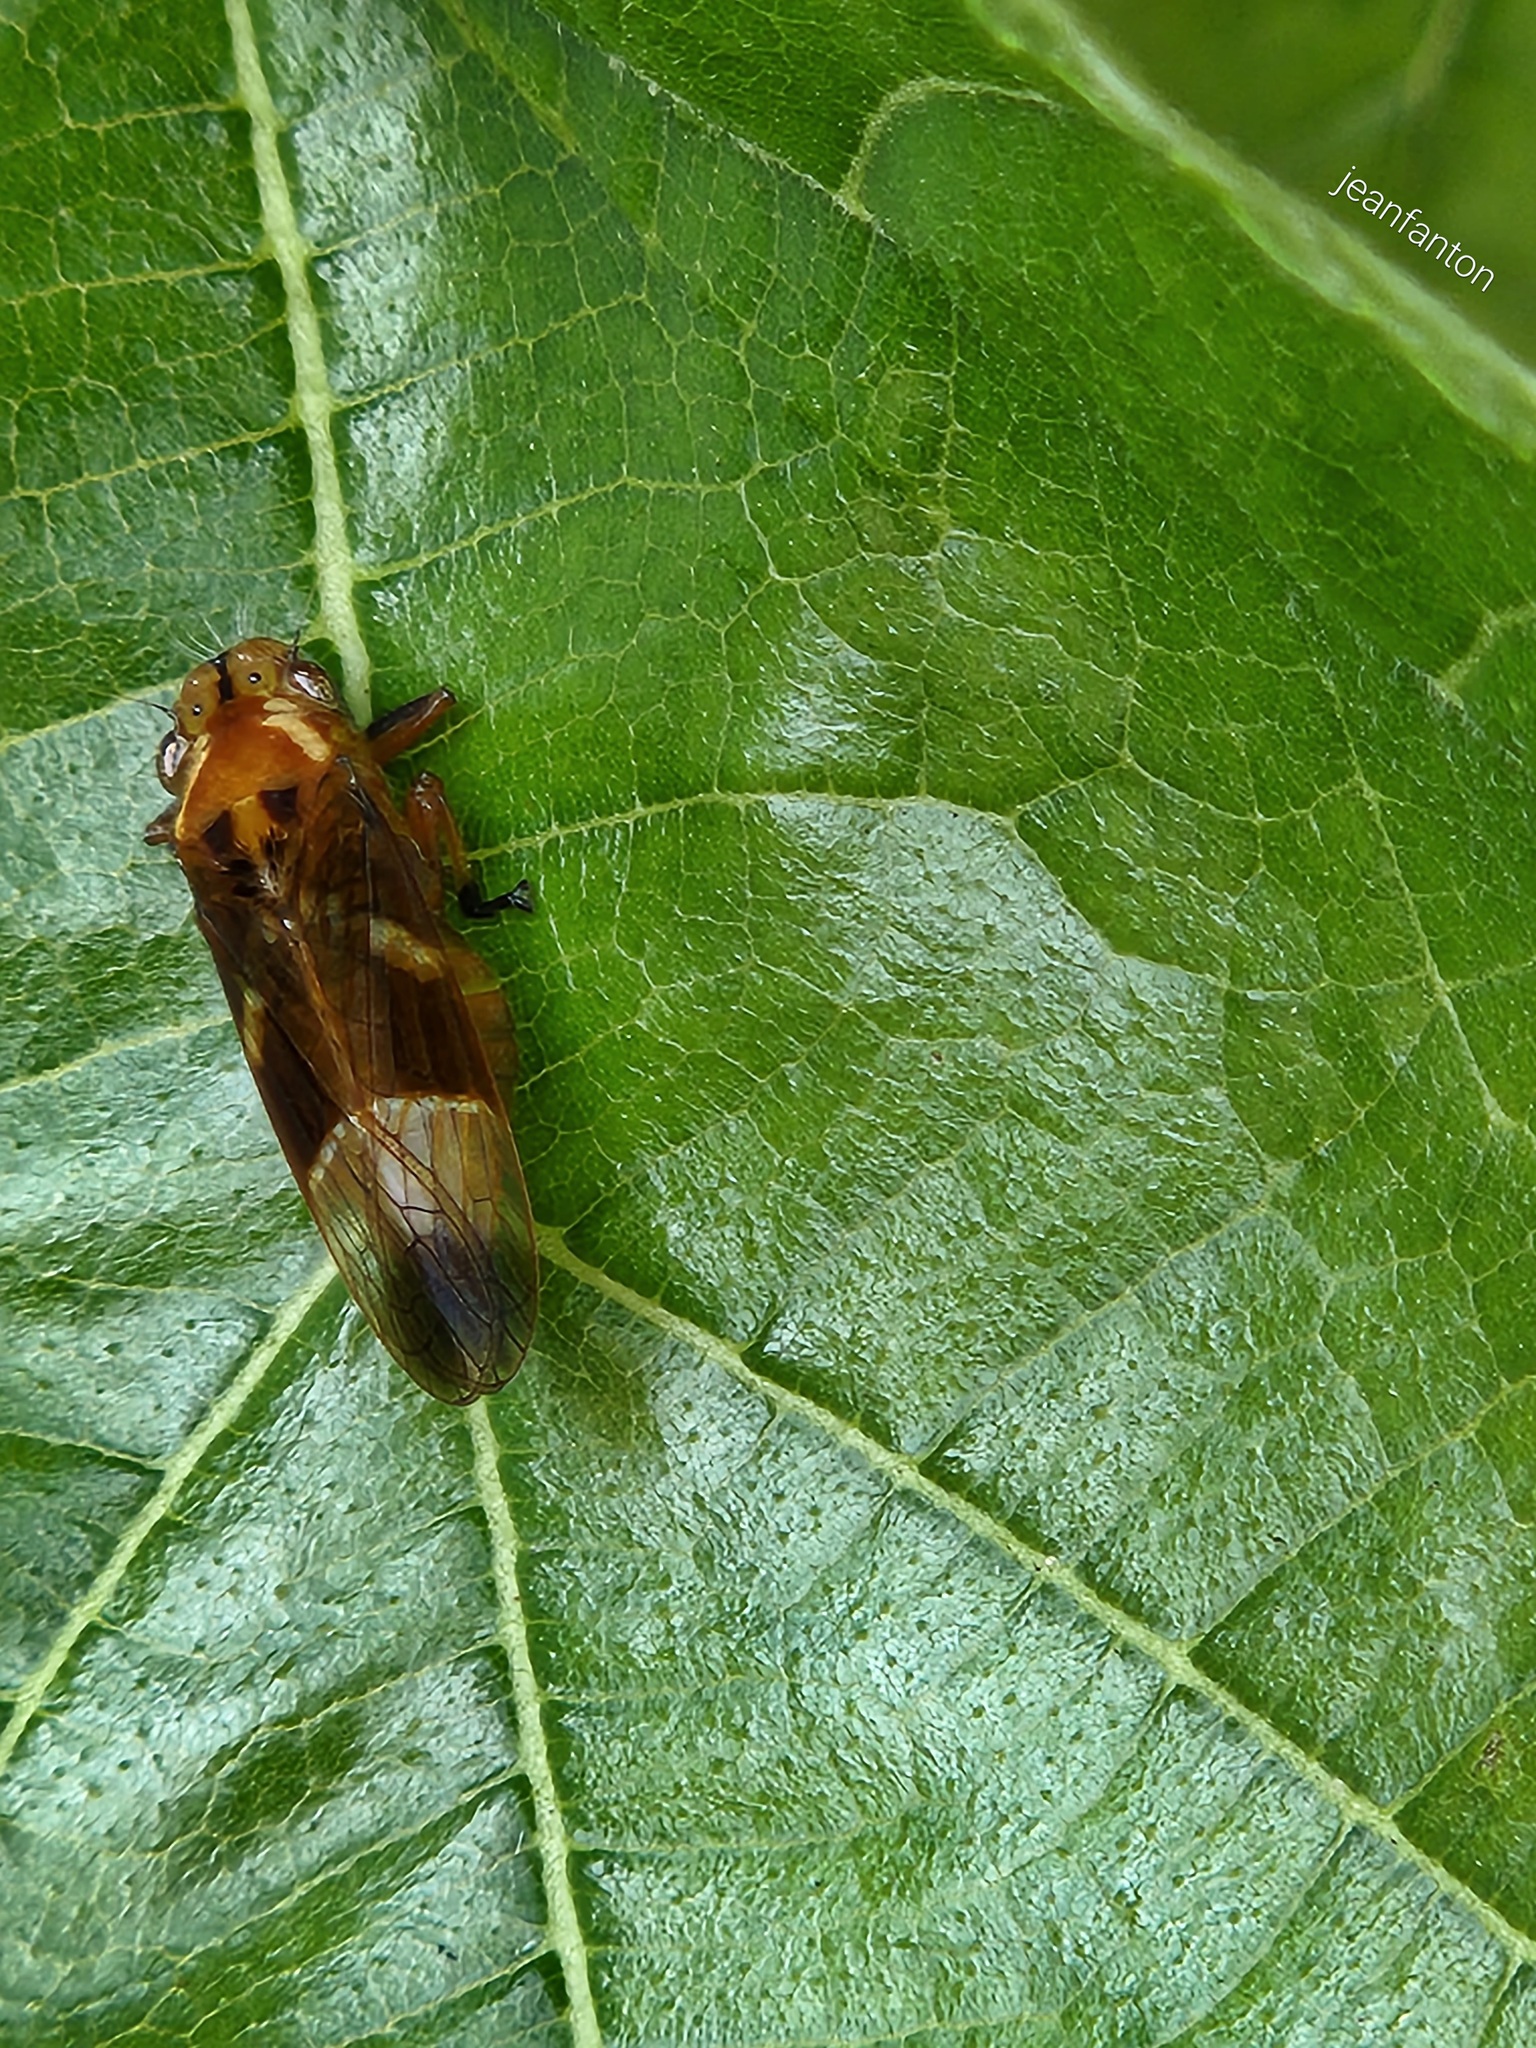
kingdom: Animalia
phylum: Arthropoda
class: Insecta
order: Hemiptera
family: Cicadellidae
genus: Teletusa
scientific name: Teletusa limpida
